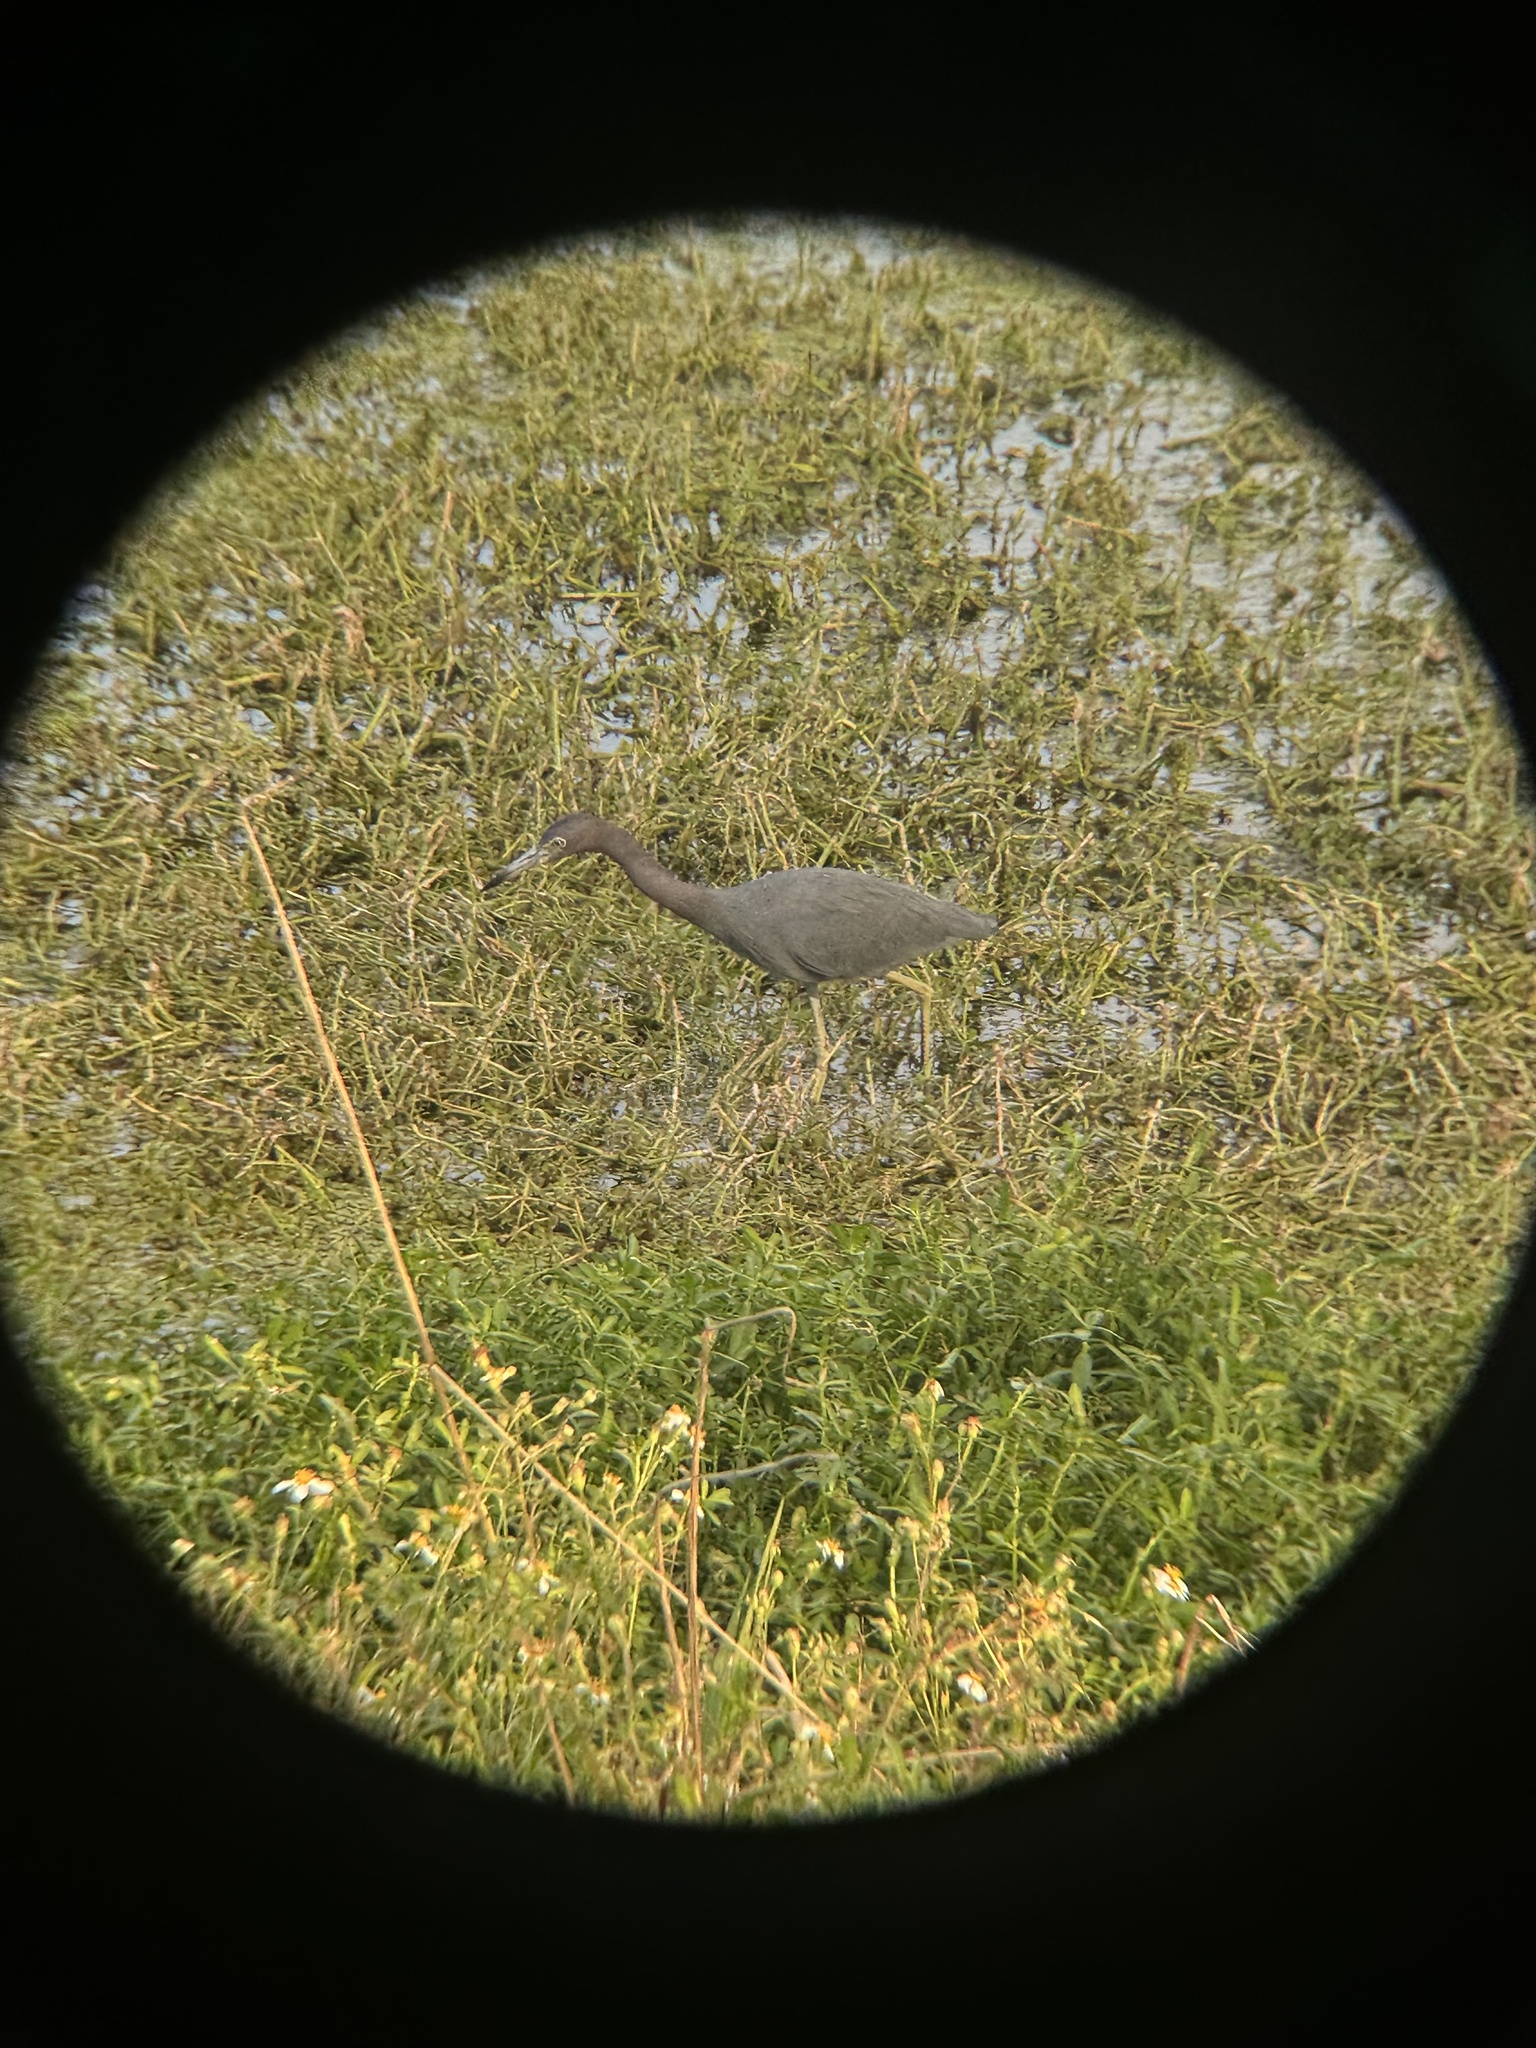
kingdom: Animalia
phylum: Chordata
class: Aves
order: Pelecaniformes
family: Ardeidae
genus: Egretta
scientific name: Egretta caerulea
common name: Little blue heron
